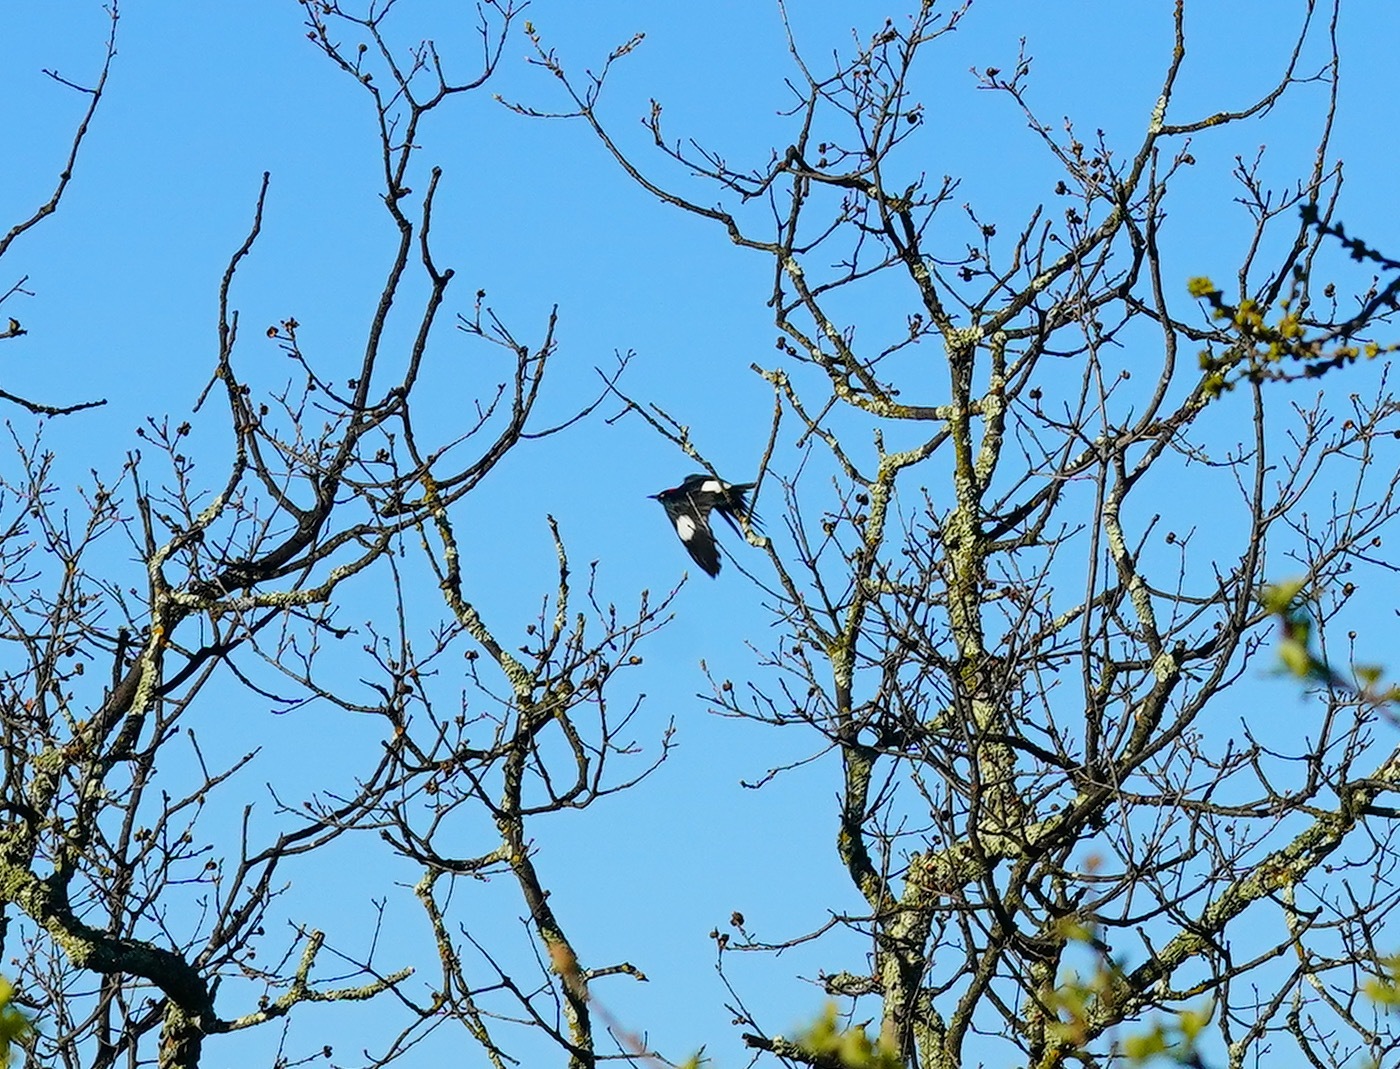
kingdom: Animalia
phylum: Chordata
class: Aves
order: Piciformes
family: Picidae
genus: Melanerpes
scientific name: Melanerpes formicivorus
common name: Acorn woodpecker
